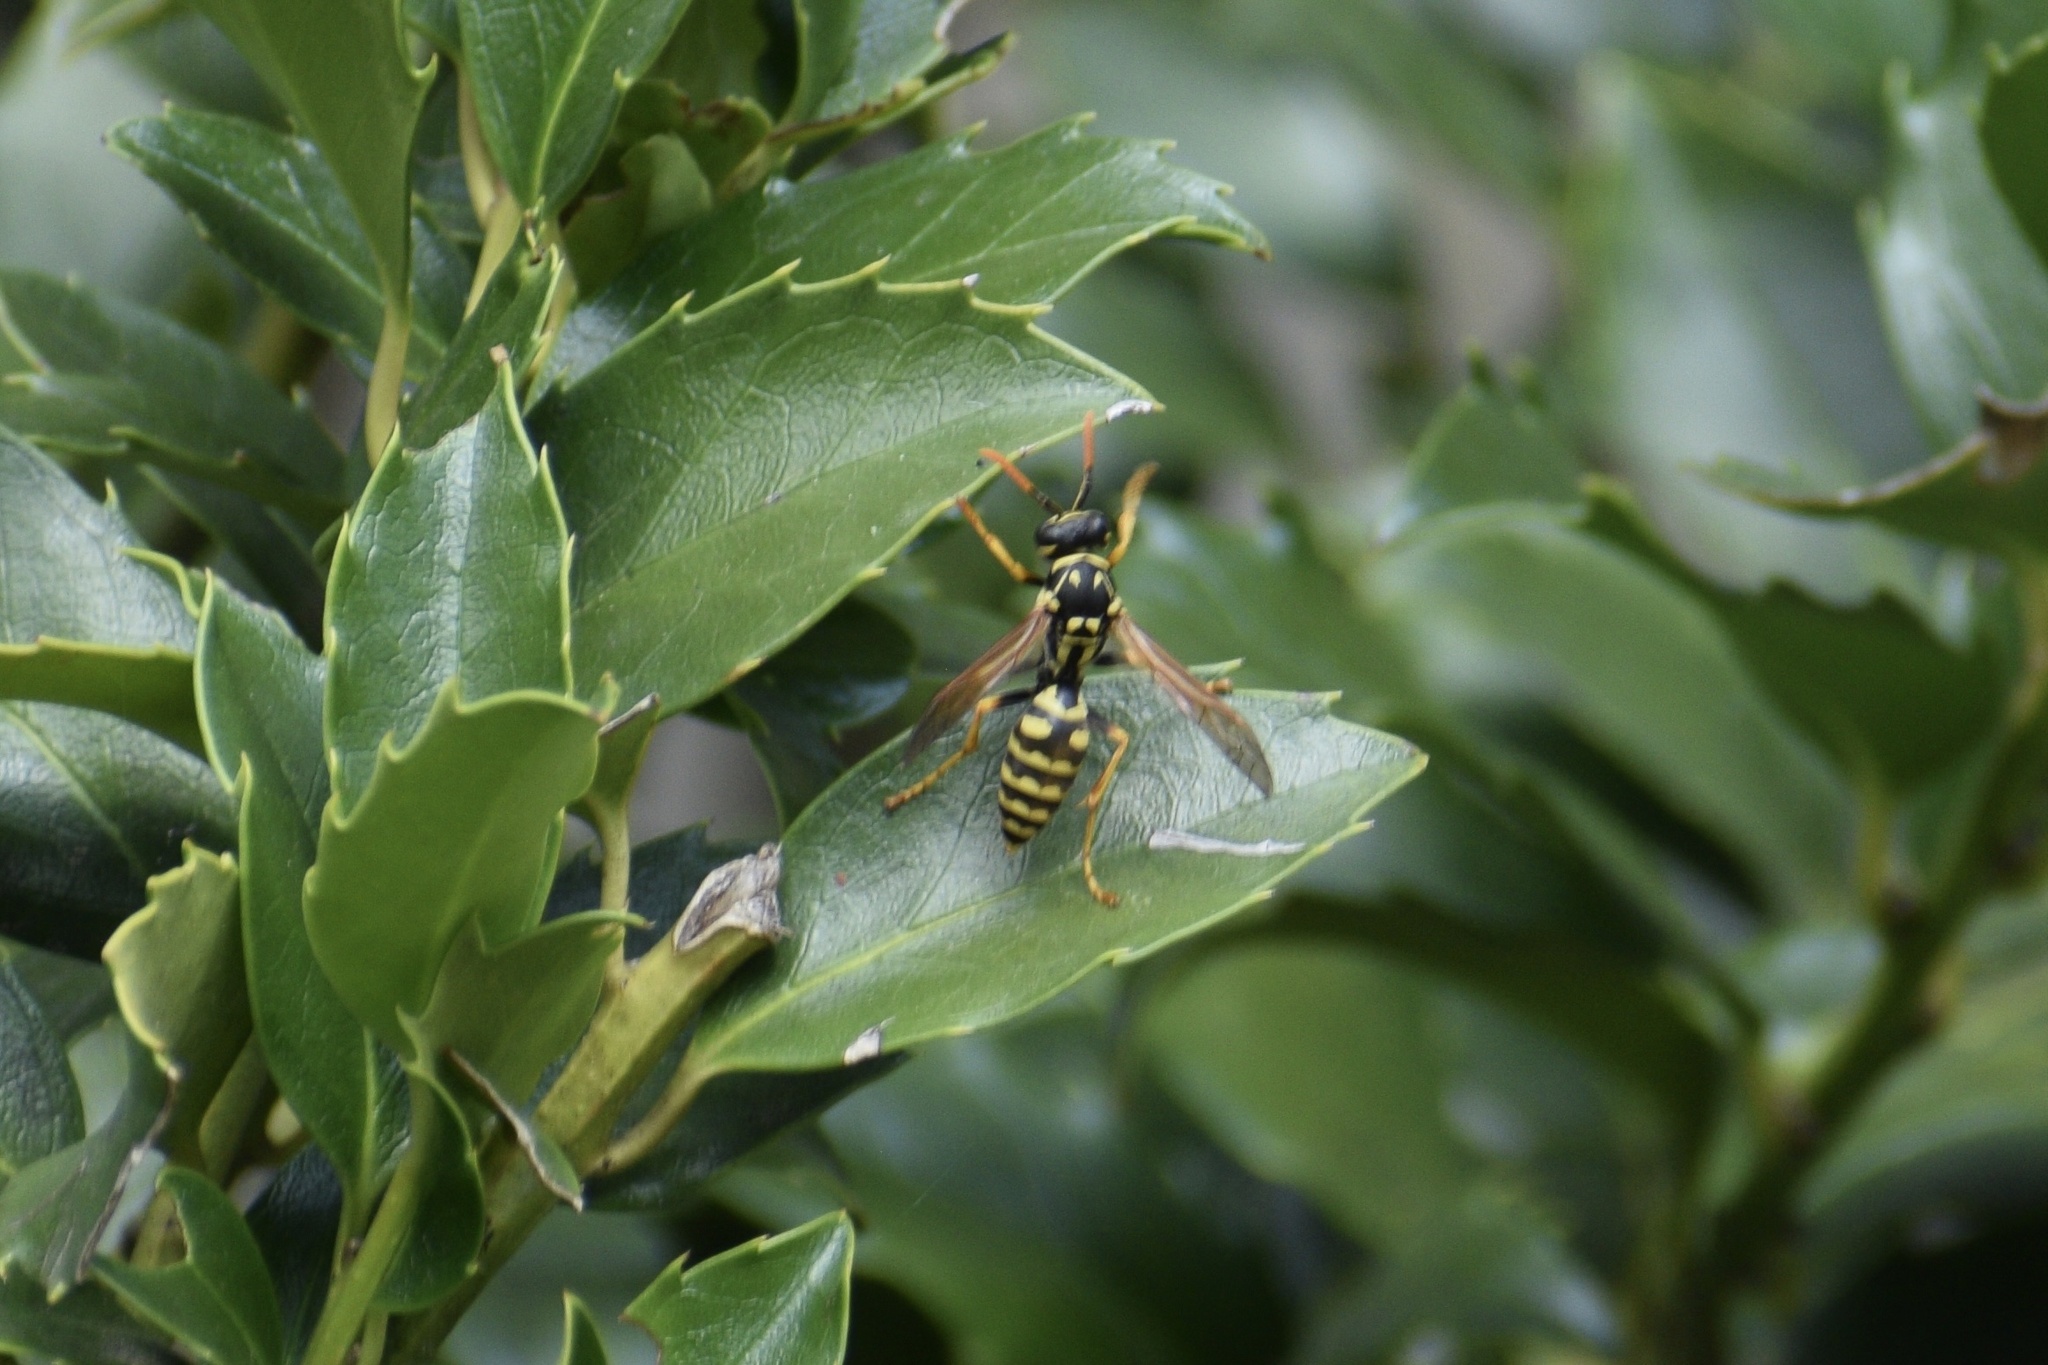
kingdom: Animalia
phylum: Arthropoda
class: Insecta
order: Hymenoptera
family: Eumenidae
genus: Polistes
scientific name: Polistes dominula
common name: Paper wasp
